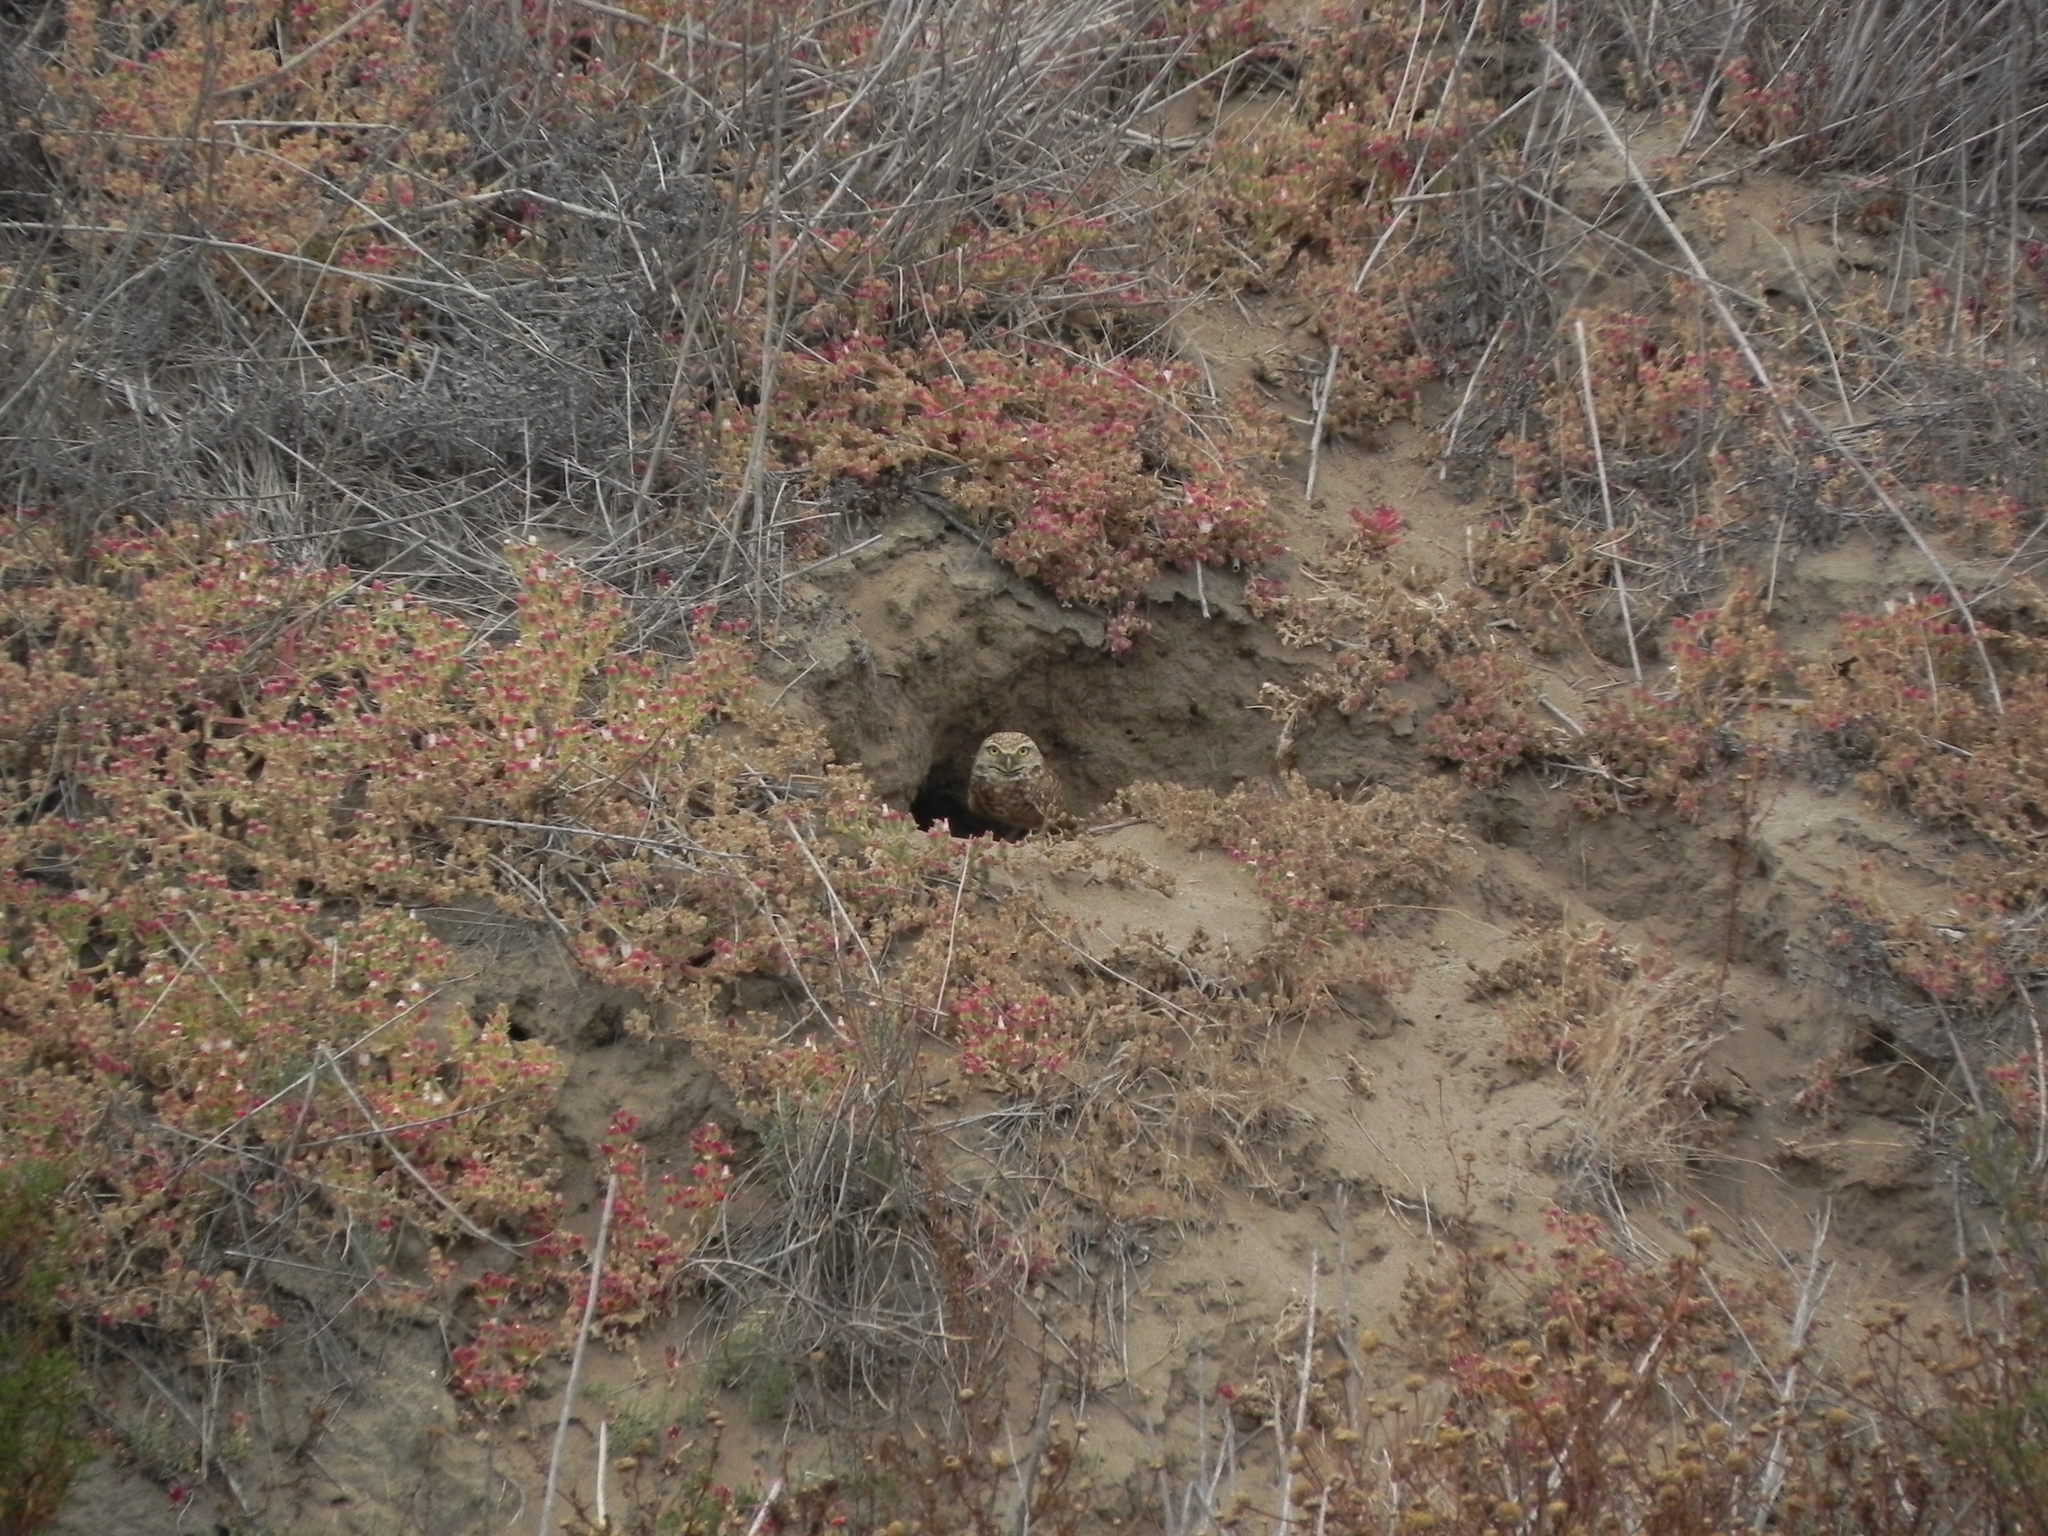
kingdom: Animalia
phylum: Chordata
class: Aves
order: Strigiformes
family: Strigidae
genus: Athene
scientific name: Athene cunicularia
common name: Burrowing owl
